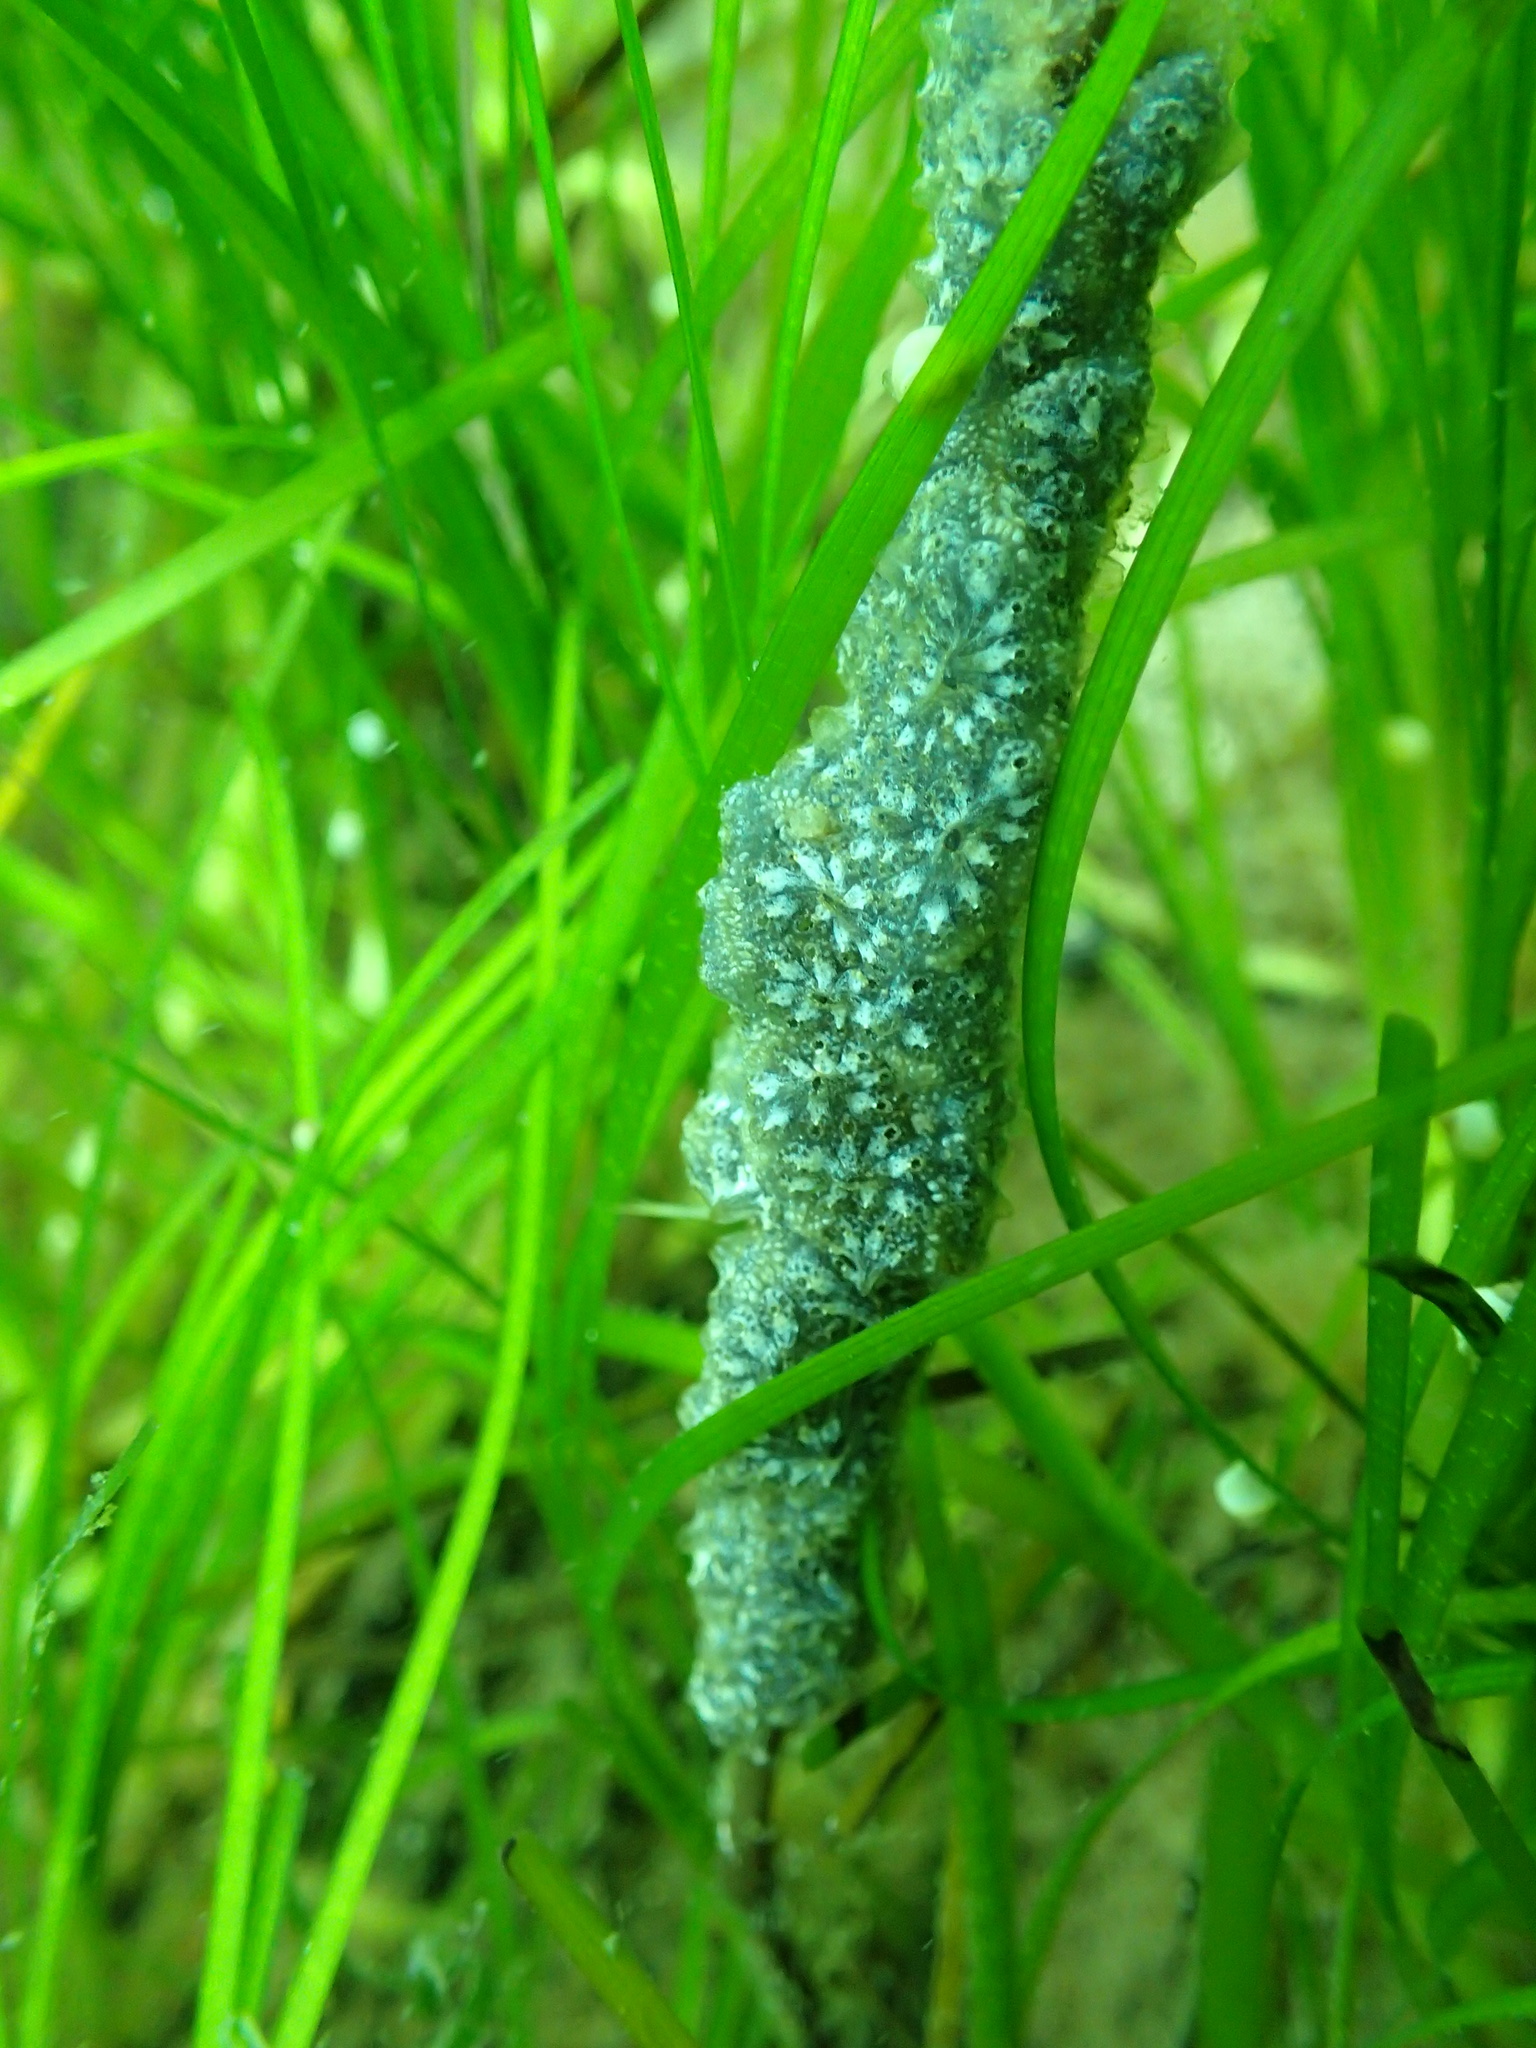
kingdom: Animalia
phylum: Chordata
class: Ascidiacea
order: Stolidobranchia
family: Styelidae
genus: Botryllus
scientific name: Botryllus schlosseri
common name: Golden star tunicate
